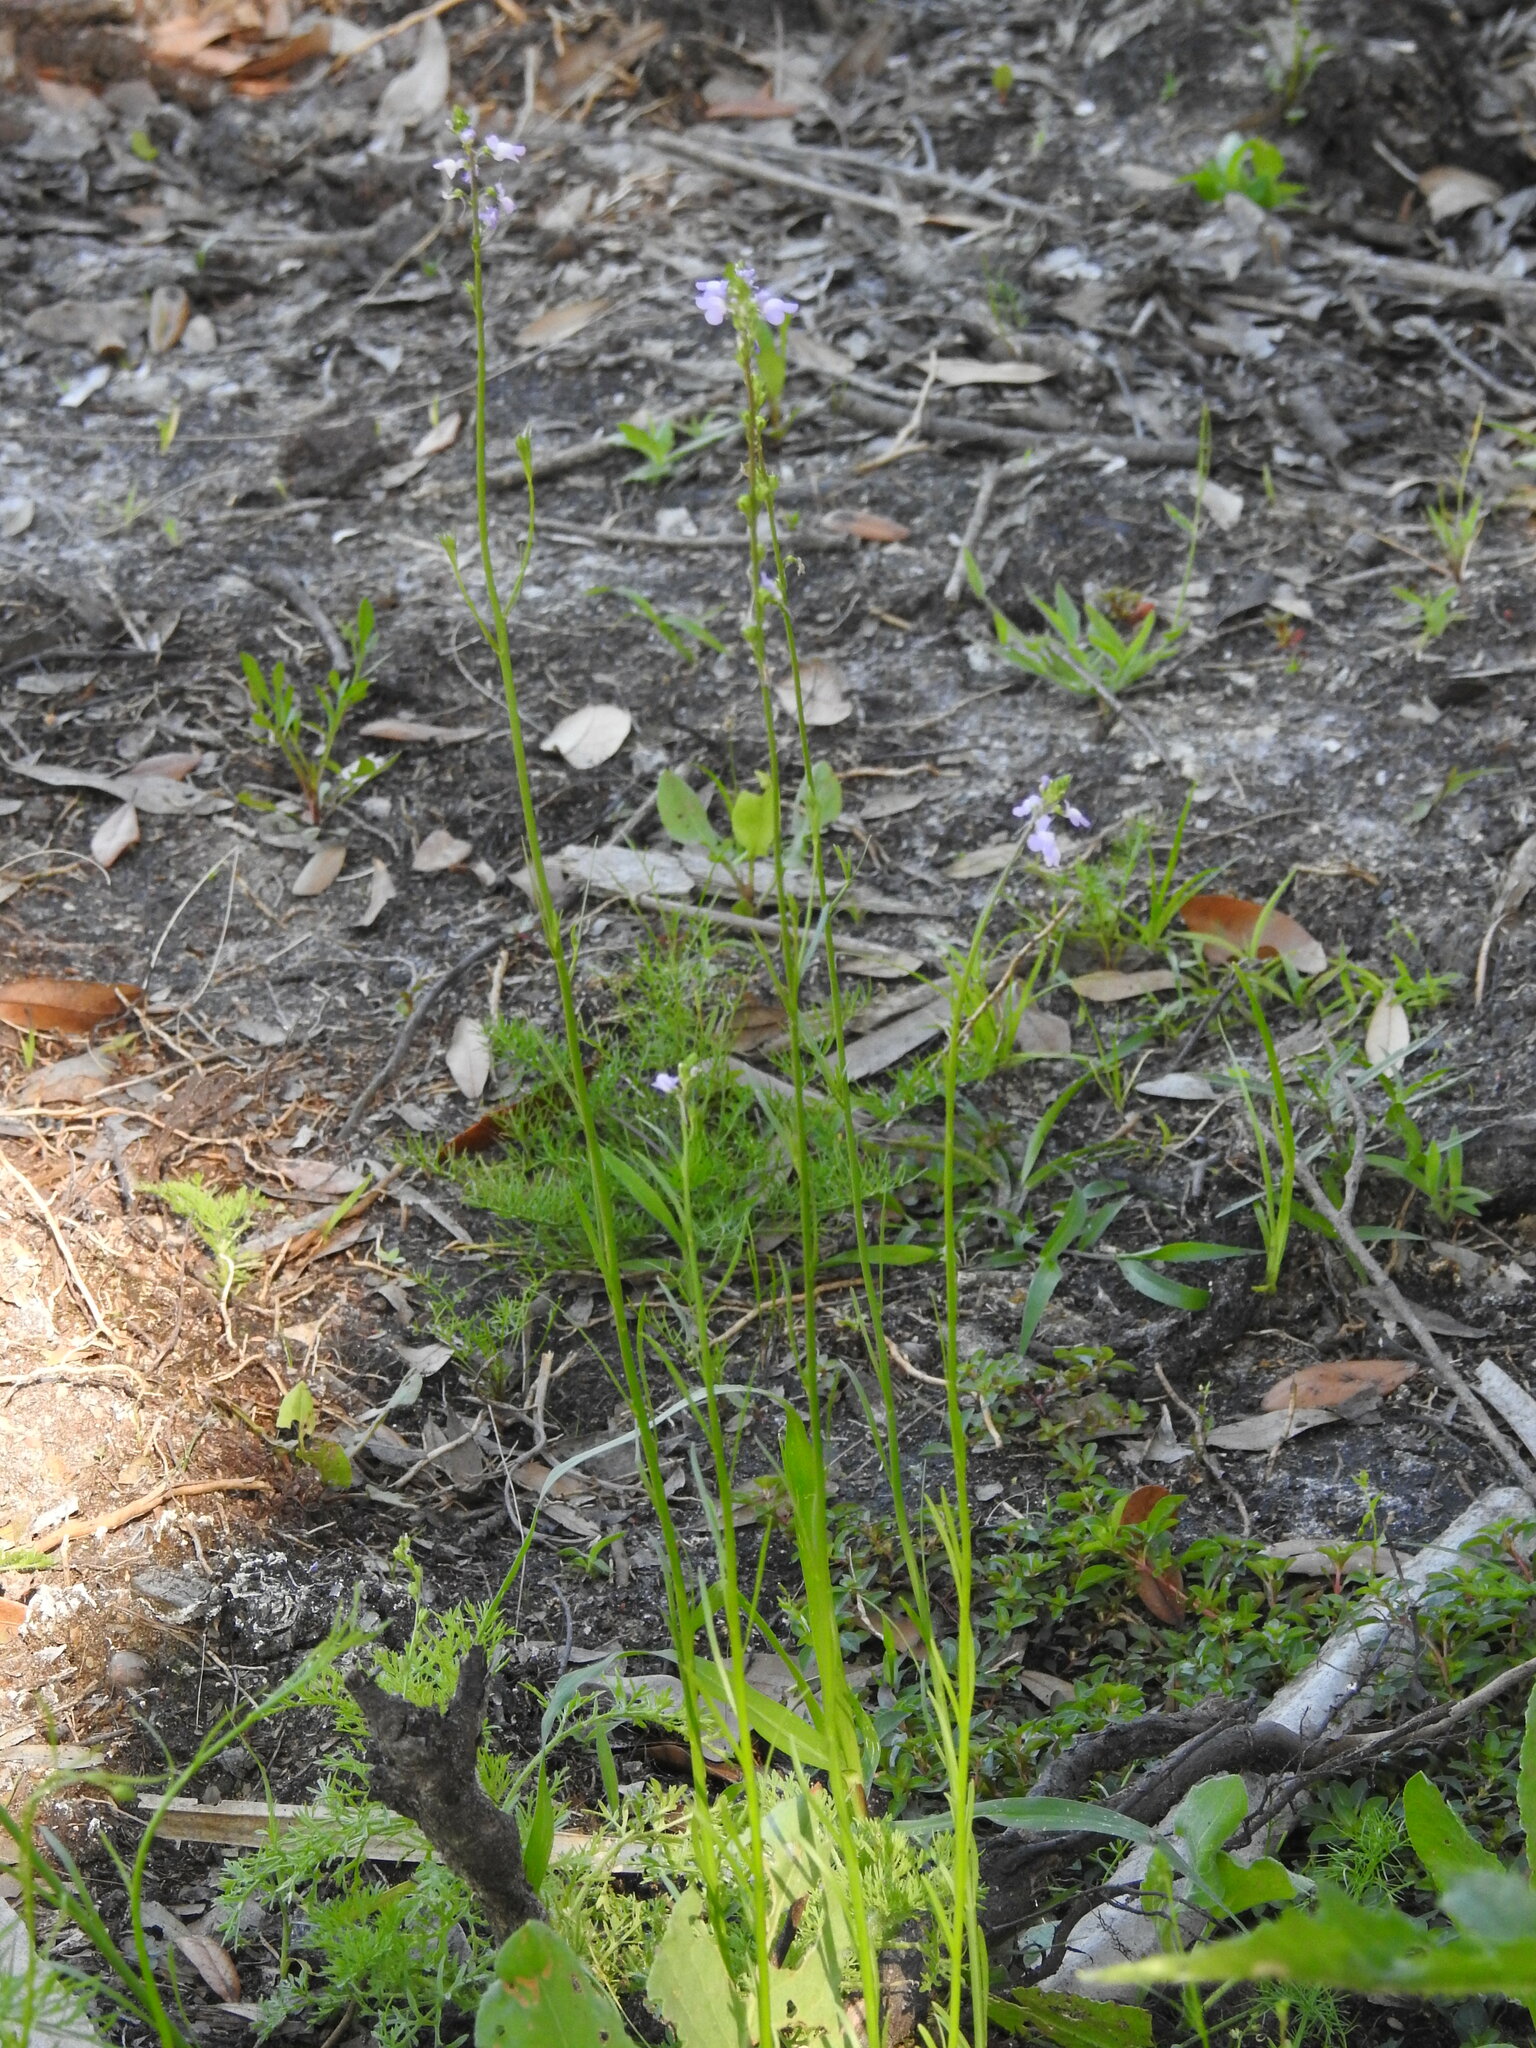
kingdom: Plantae
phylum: Tracheophyta
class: Magnoliopsida
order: Lamiales
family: Plantaginaceae
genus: Nuttallanthus
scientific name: Nuttallanthus canadensis
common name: Blue toadflax
